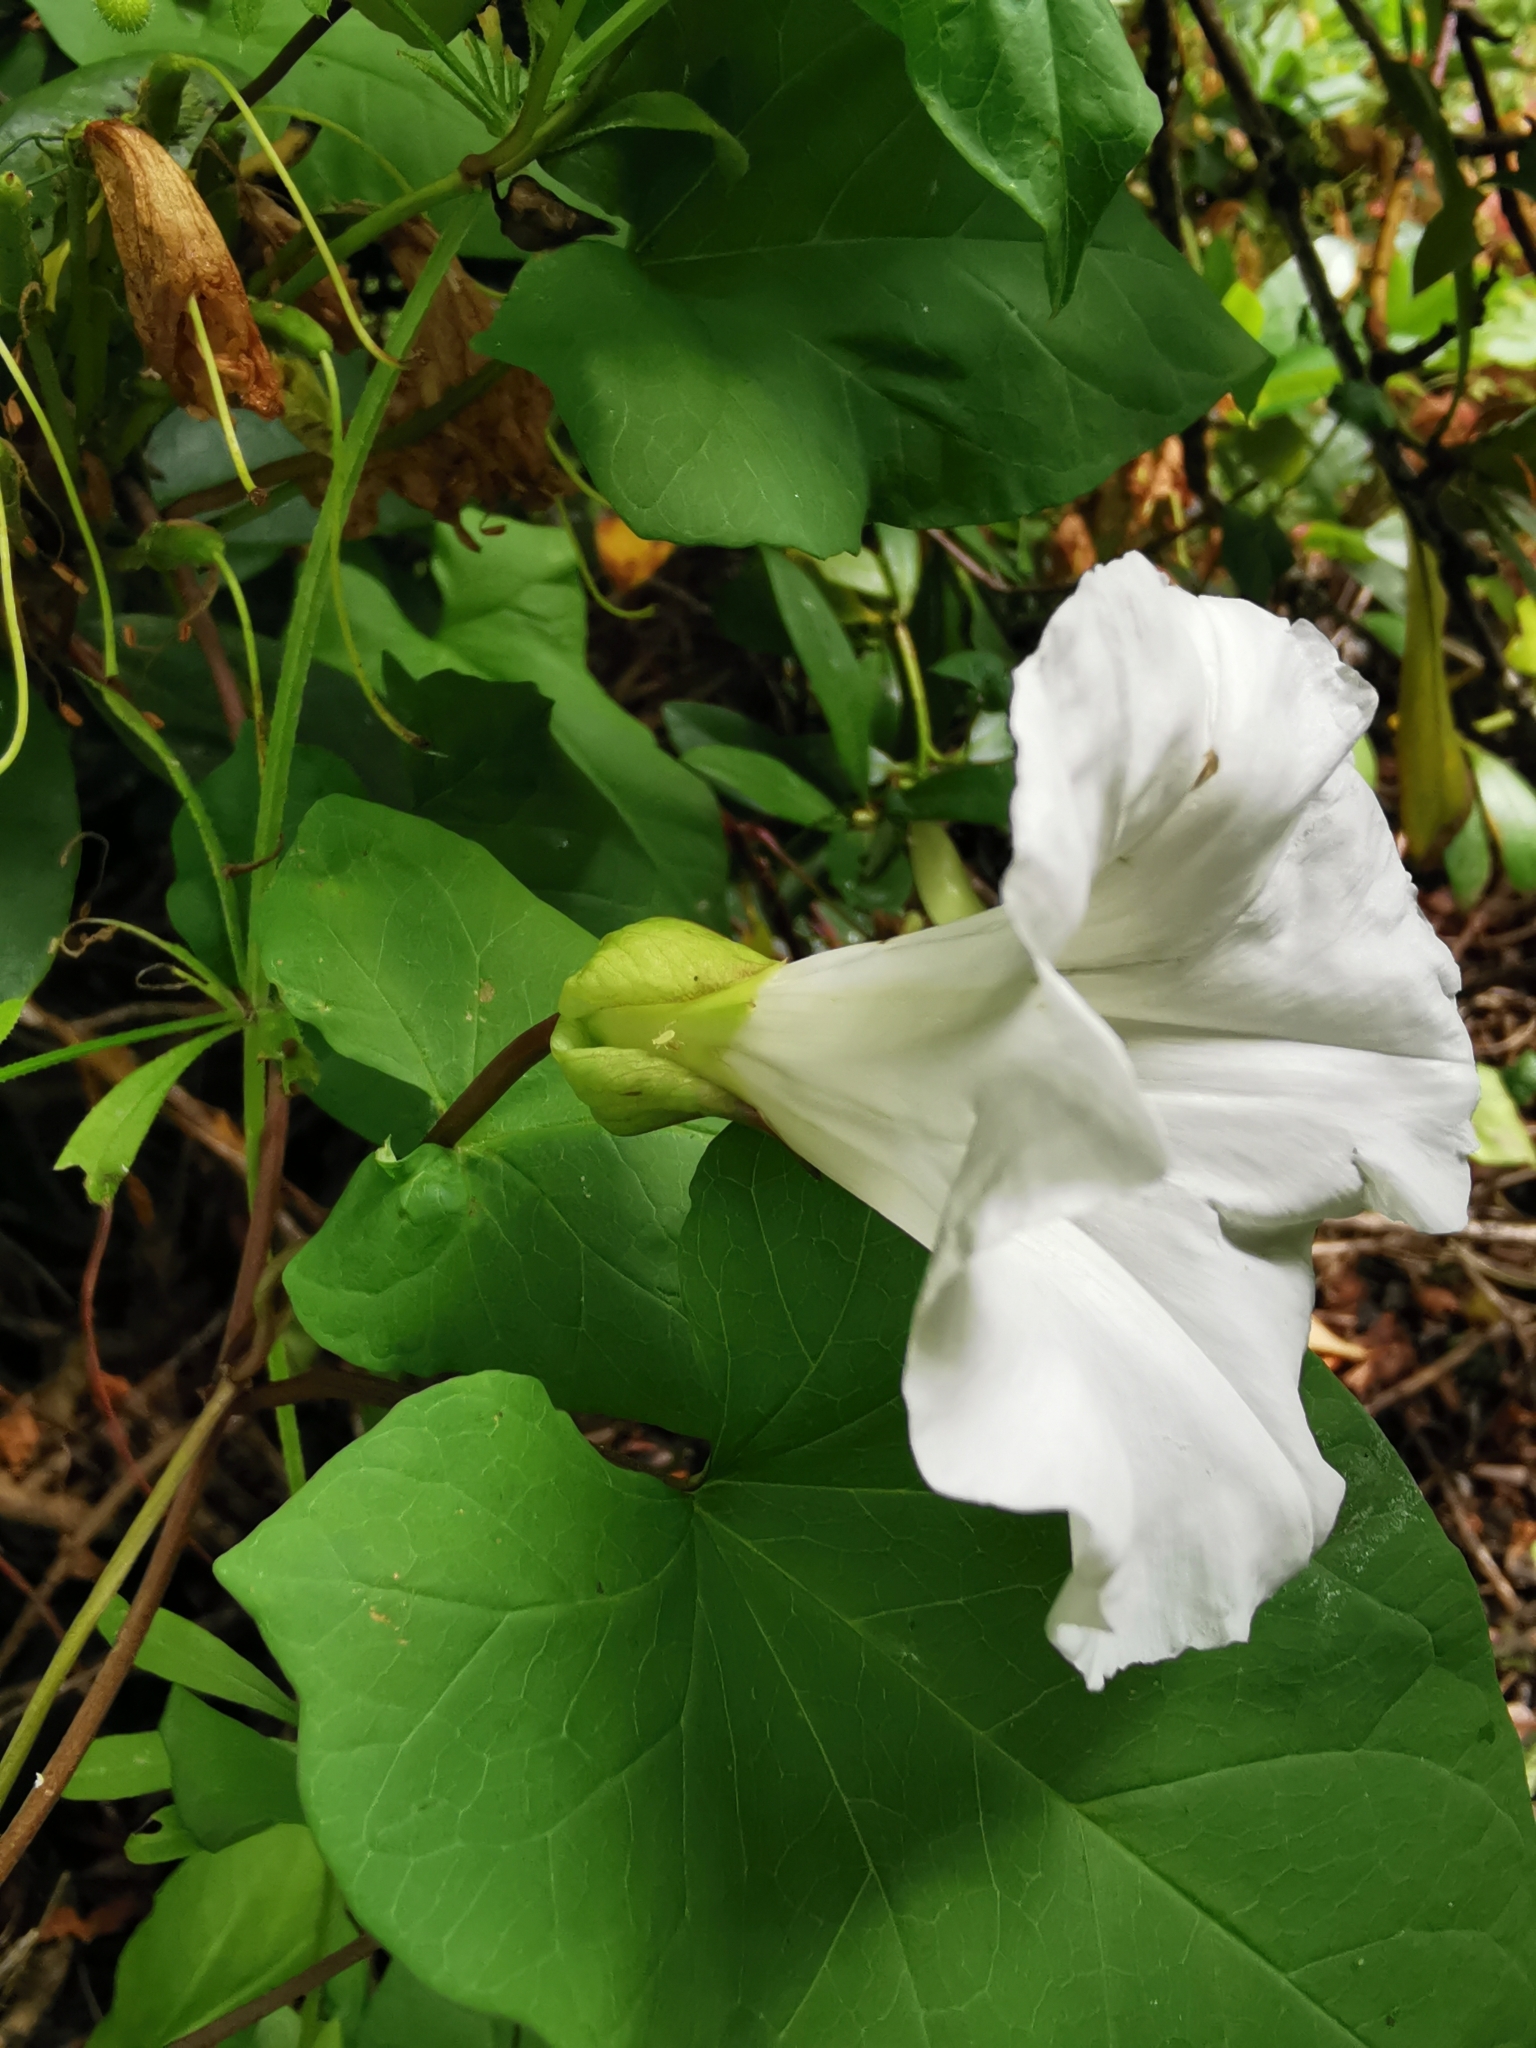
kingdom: Plantae
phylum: Tracheophyta
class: Magnoliopsida
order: Solanales
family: Convolvulaceae
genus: Calystegia
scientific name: Calystegia silvatica
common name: Large bindweed
